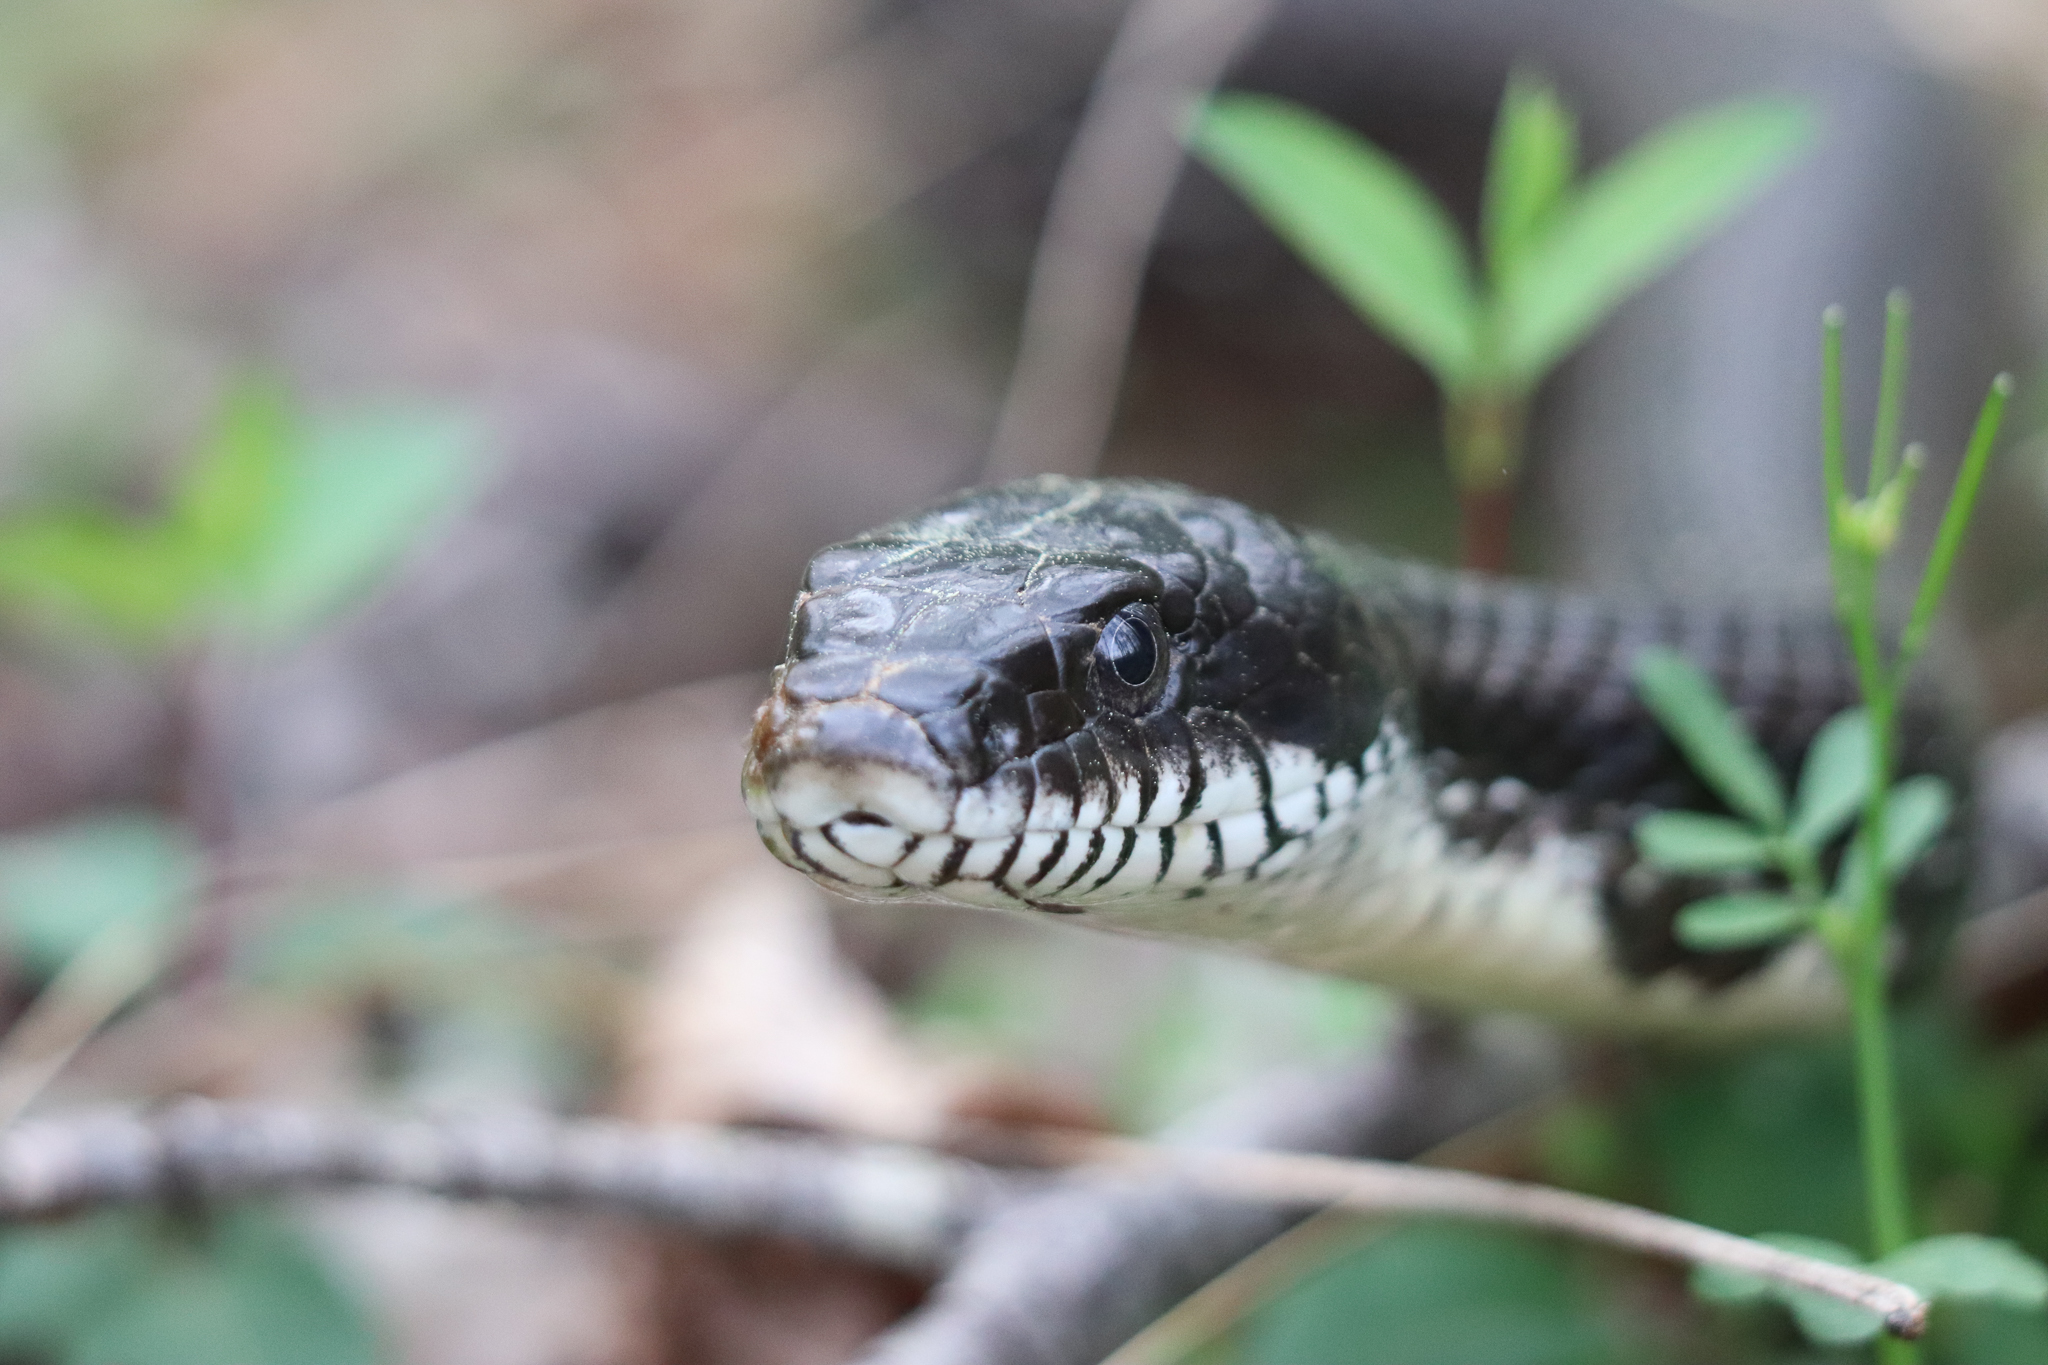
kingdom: Animalia
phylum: Chordata
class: Squamata
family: Colubridae
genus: Pantherophis
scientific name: Pantherophis alleghaniensis
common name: Eastern rat snake
